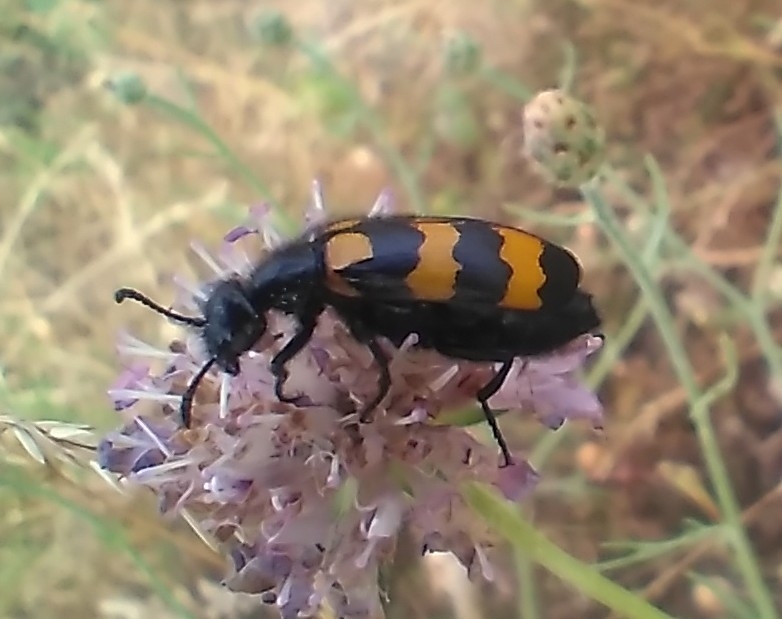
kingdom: Animalia
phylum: Arthropoda
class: Insecta
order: Coleoptera
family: Meloidae
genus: Mylabris
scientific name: Mylabris variabilis
